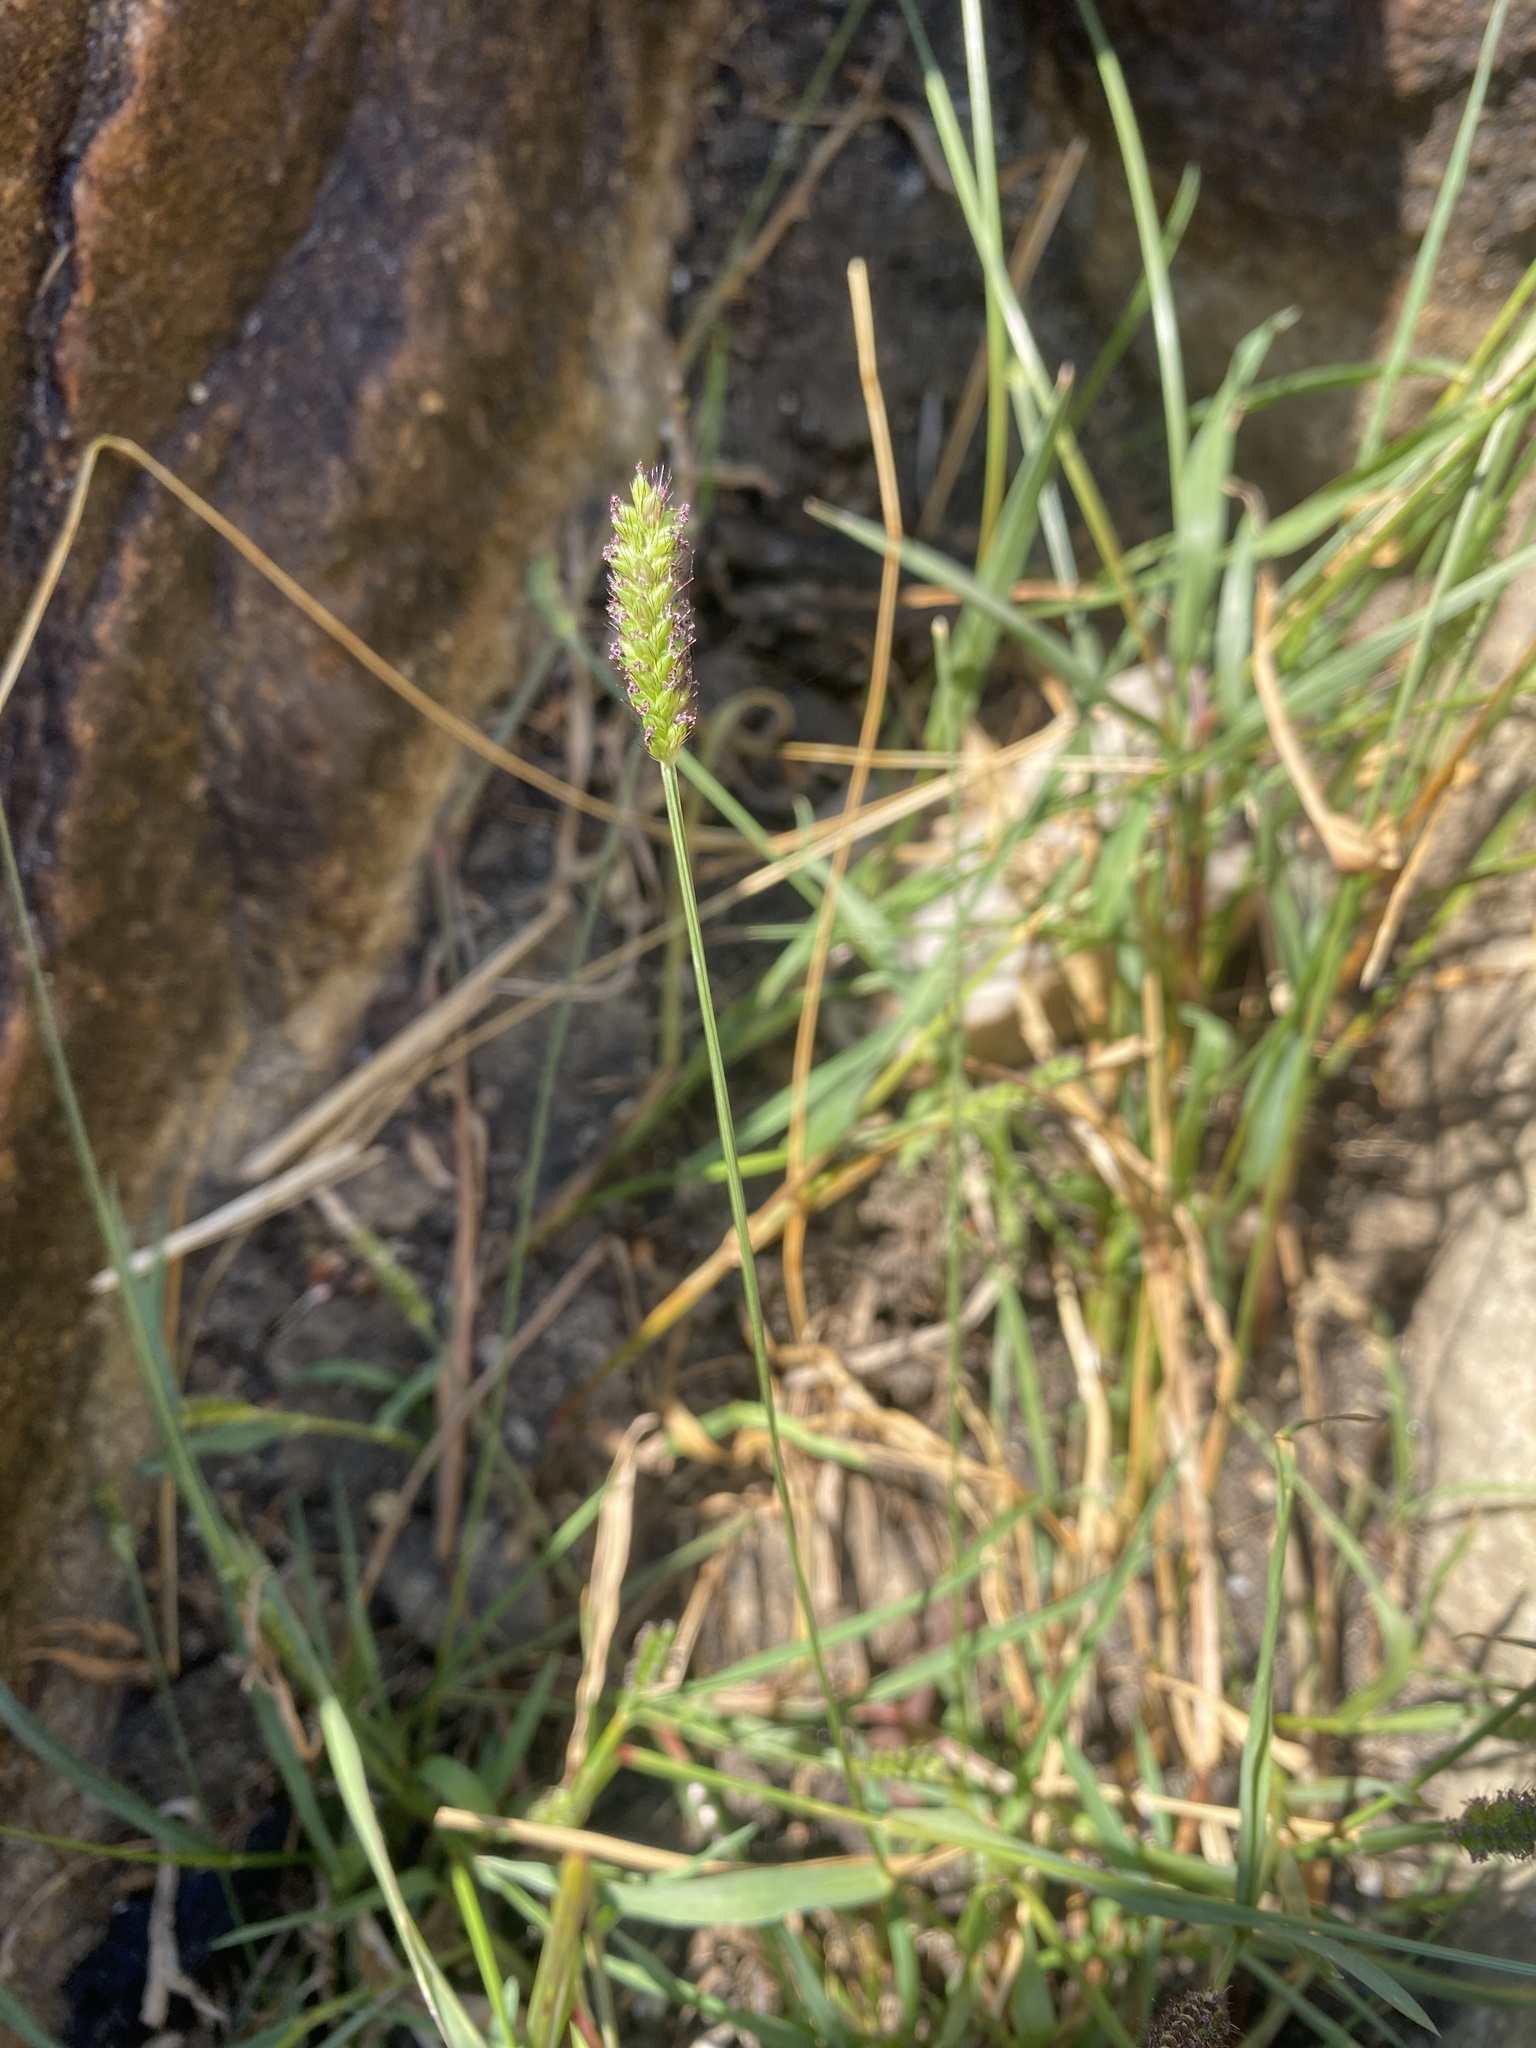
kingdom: Plantae
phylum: Tracheophyta
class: Liliopsida
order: Poales
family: Poaceae
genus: Setaria
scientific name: Setaria incrassata
